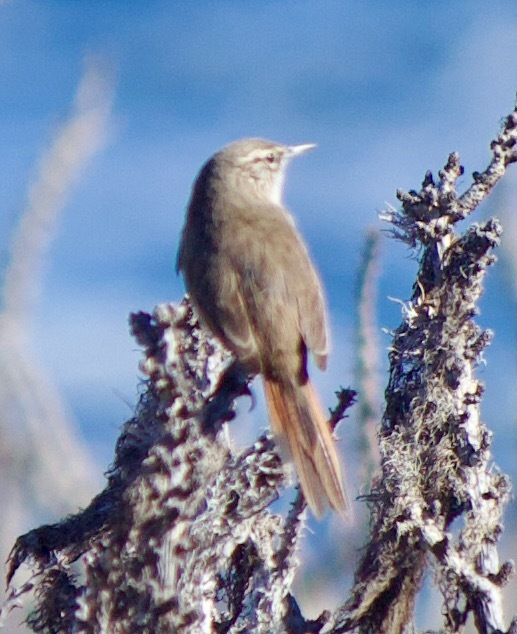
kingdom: Animalia
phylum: Chordata
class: Aves
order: Passeriformes
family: Furnariidae
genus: Asthenes
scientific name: Asthenes modesta
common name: Cordilleran canastero
